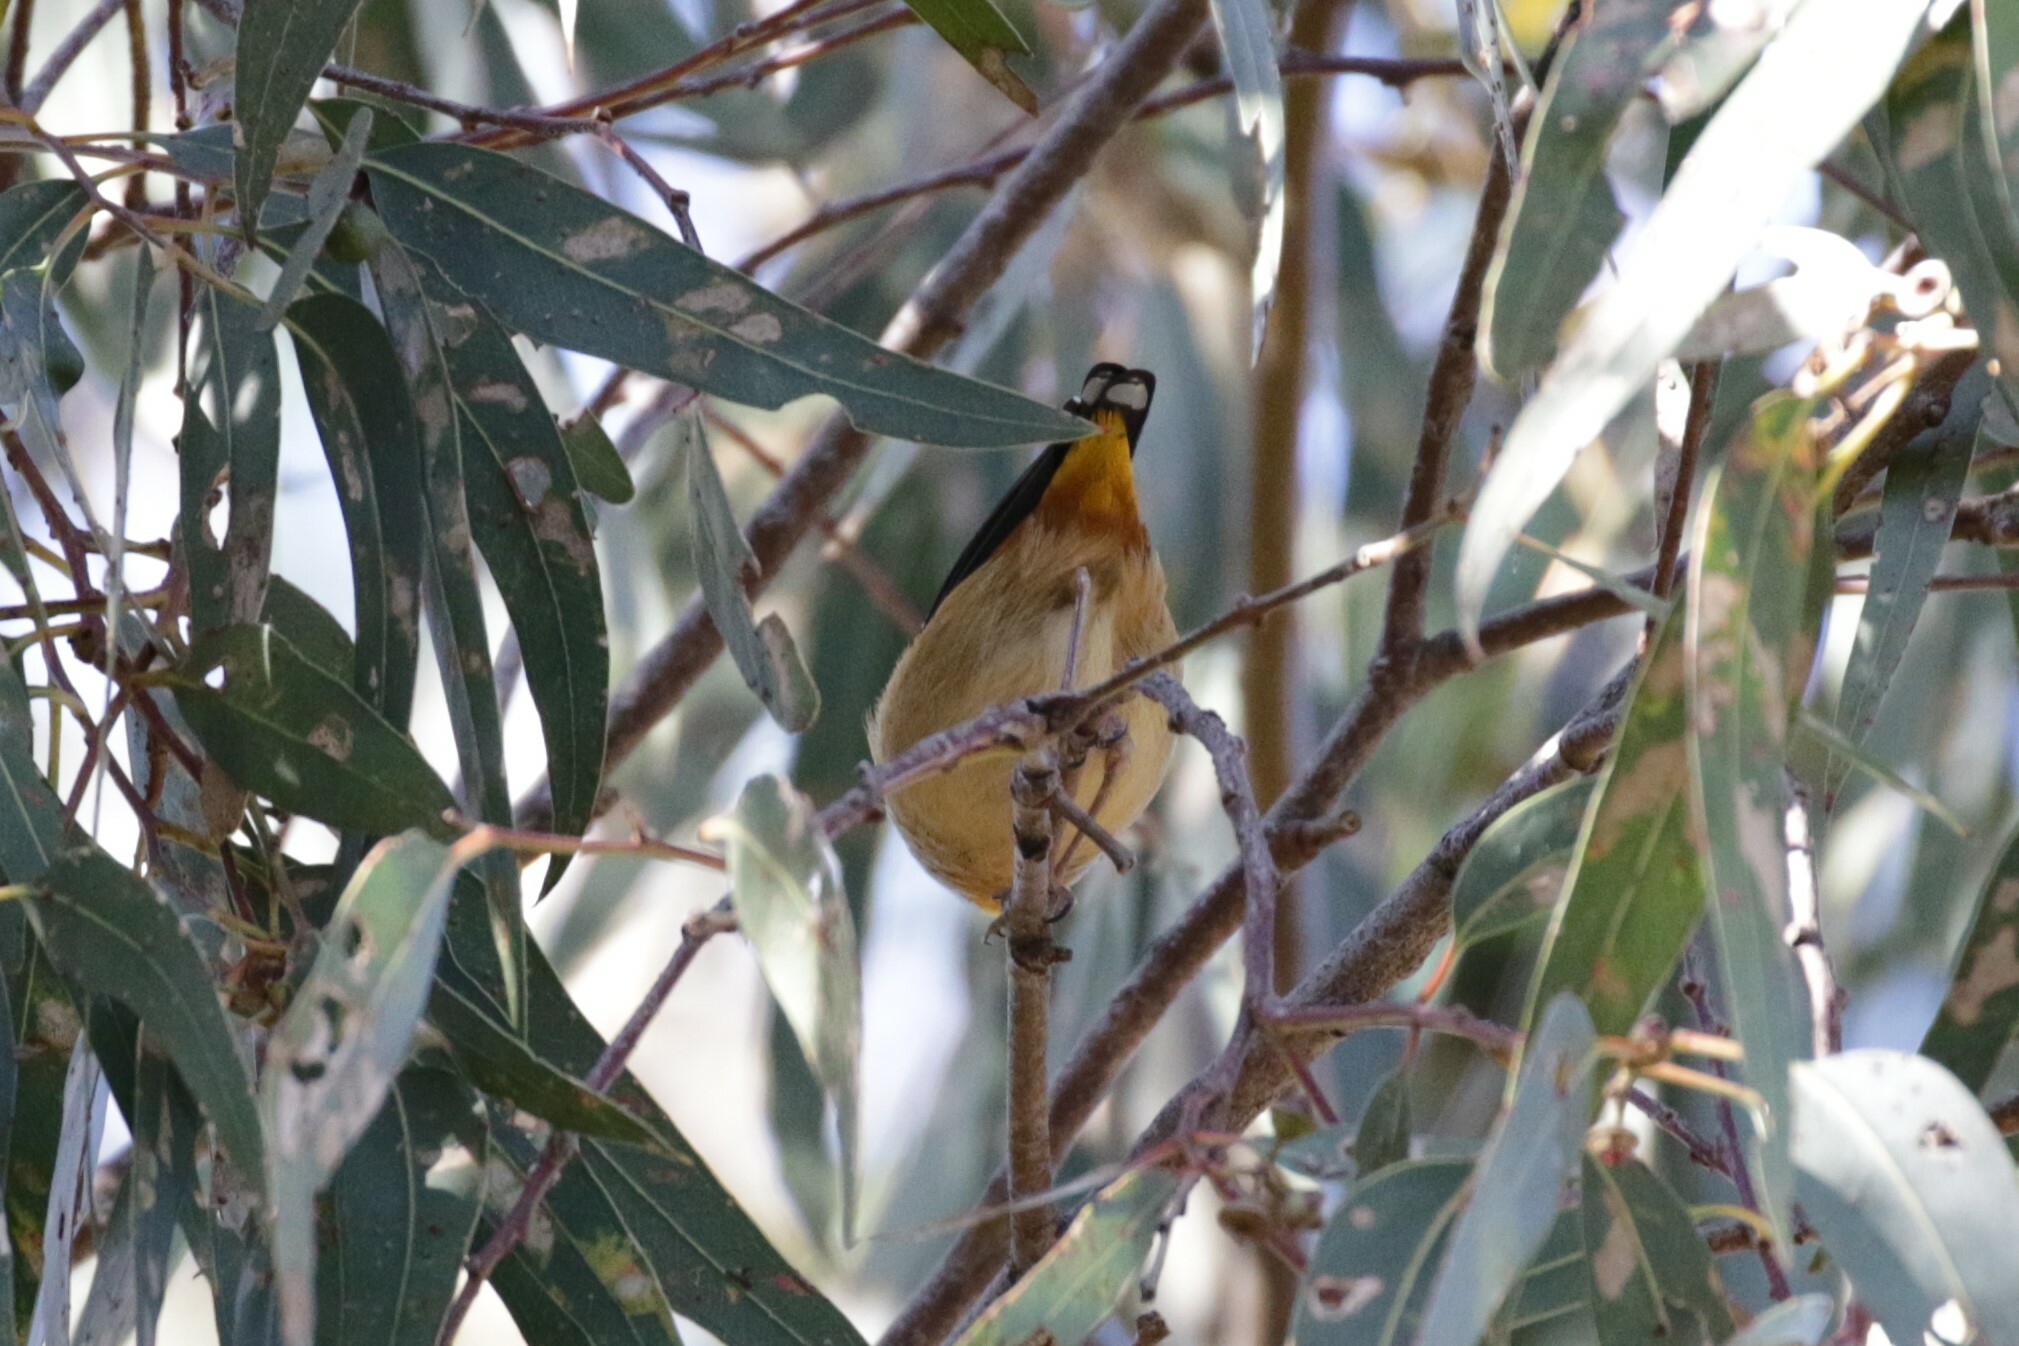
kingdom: Animalia
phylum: Chordata
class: Aves
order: Passeriformes
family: Pardalotidae
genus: Pardalotus
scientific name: Pardalotus punctatus
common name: Spotted pardalote
